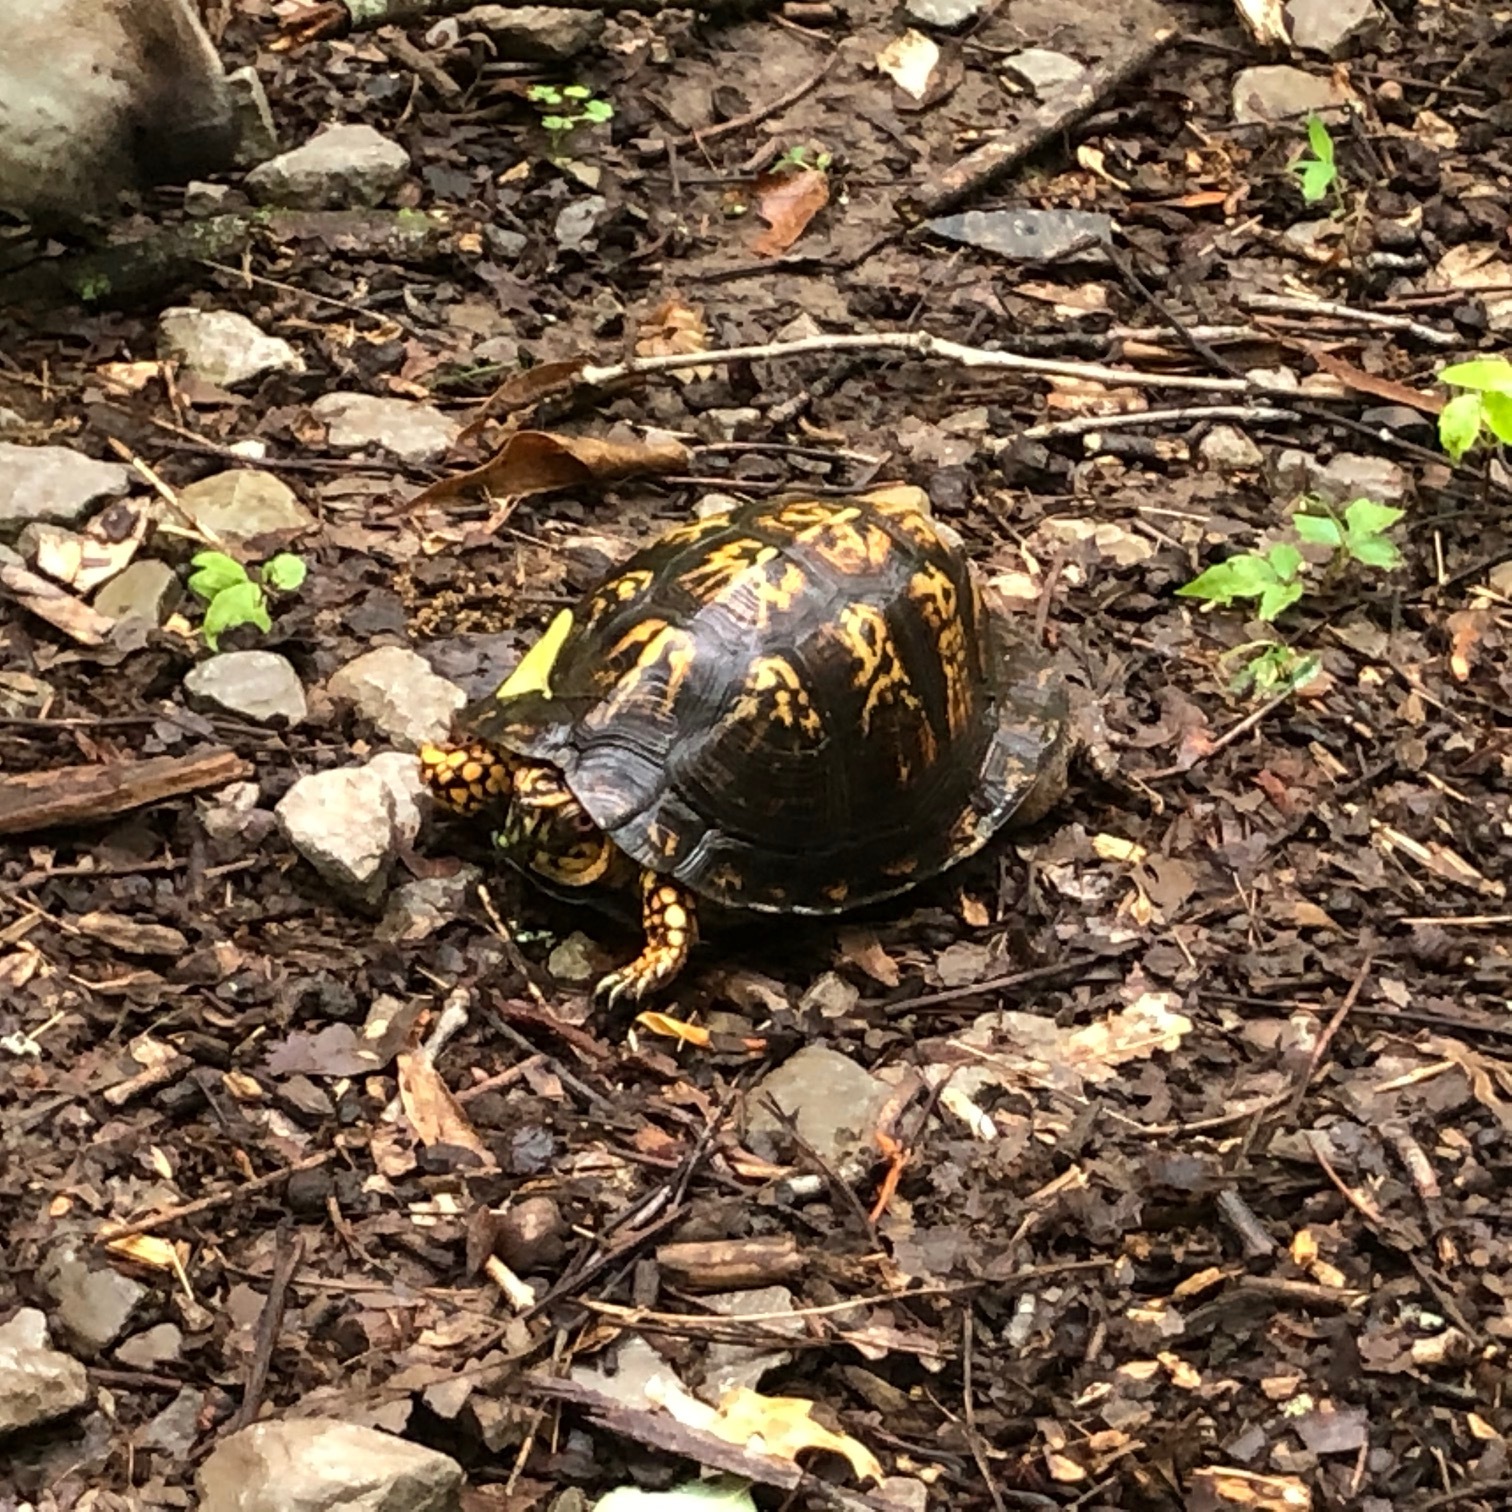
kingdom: Animalia
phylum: Chordata
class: Testudines
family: Emydidae
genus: Terrapene
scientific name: Terrapene carolina
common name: Common box turtle
